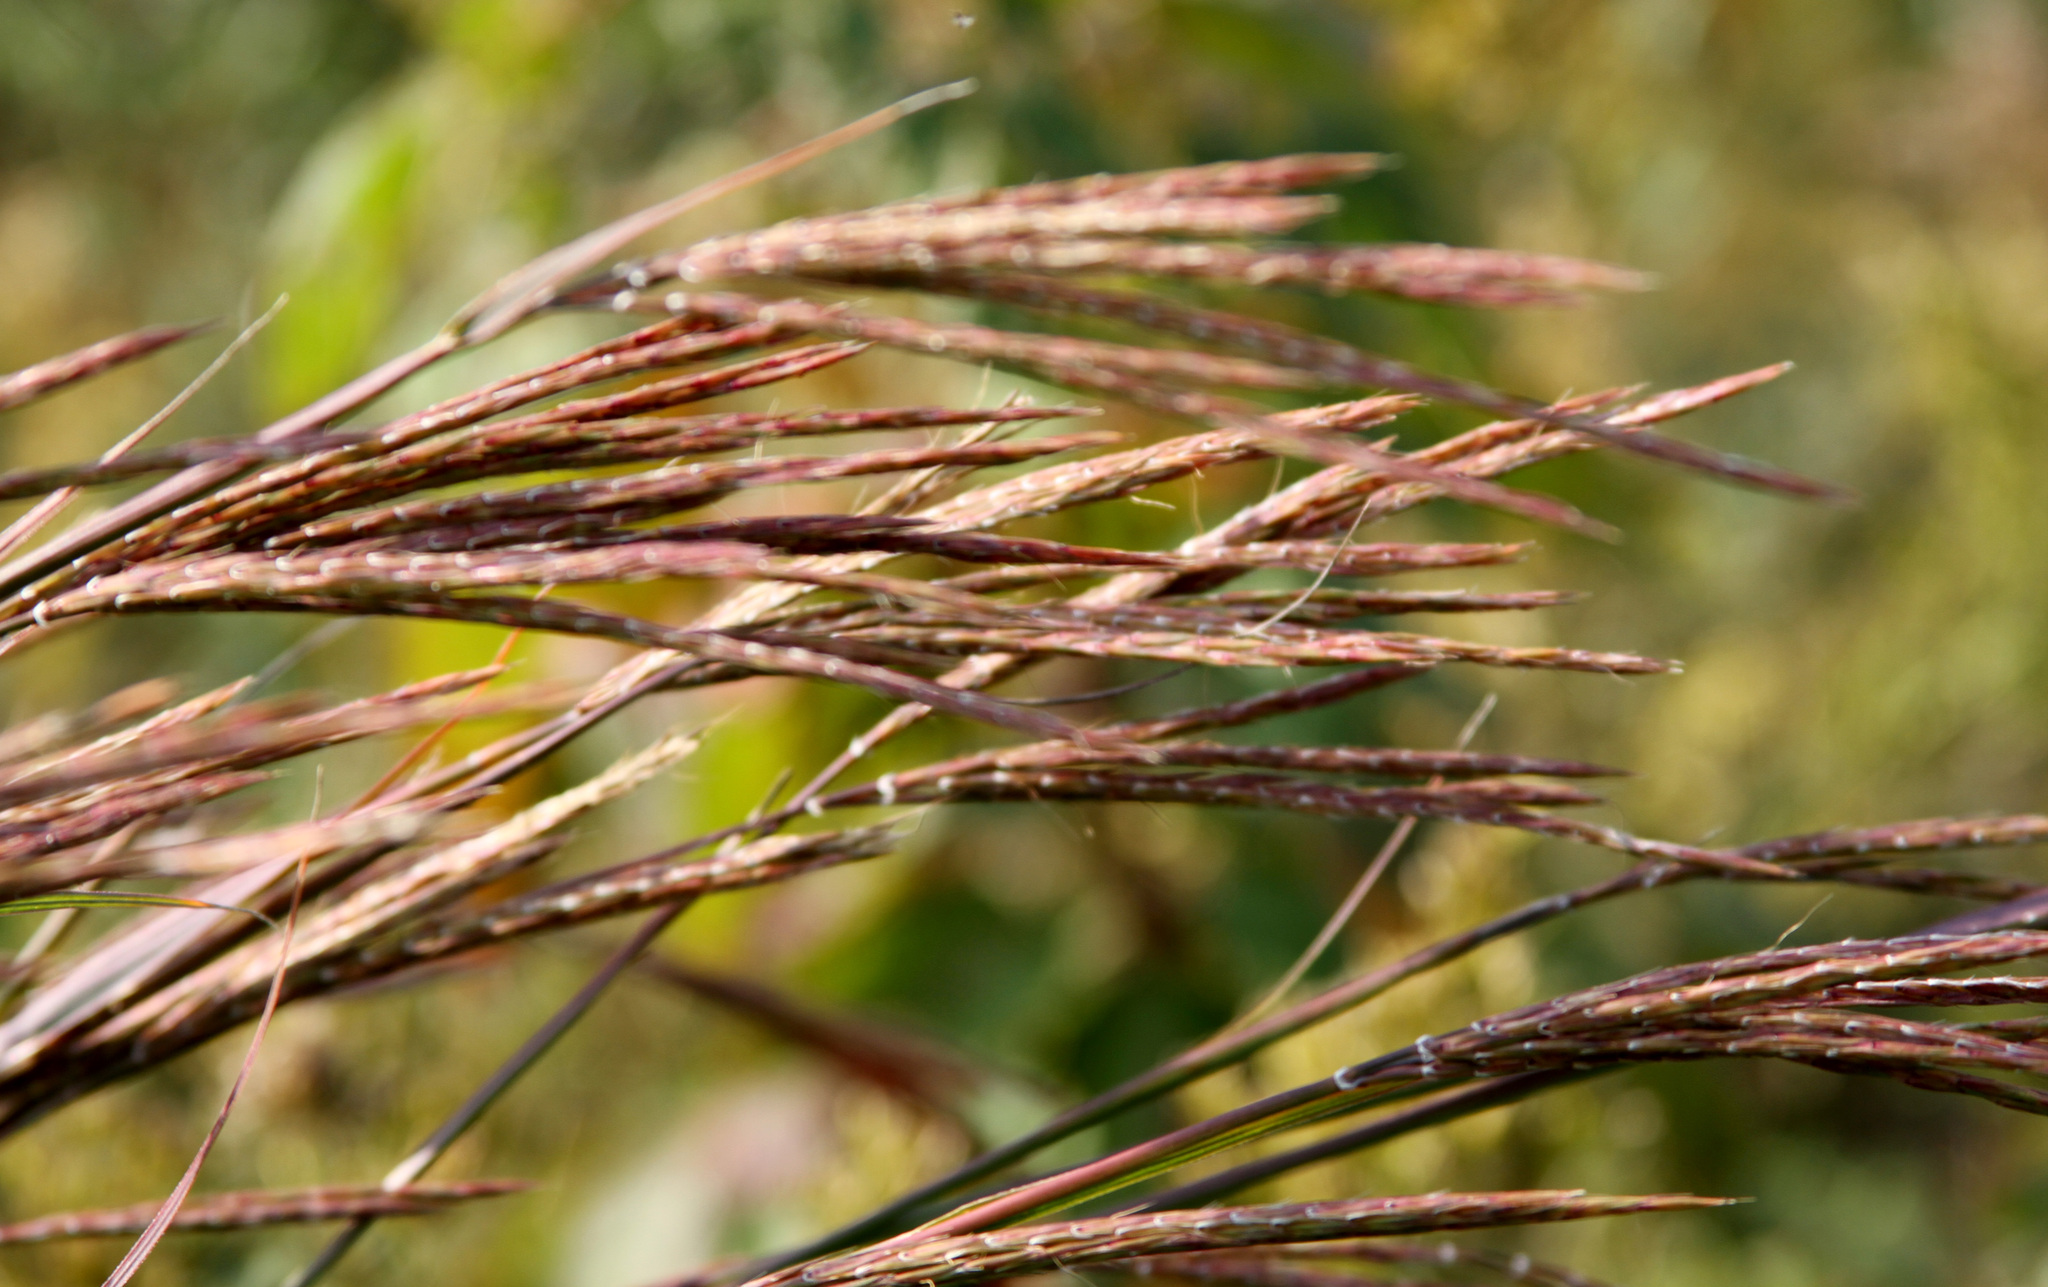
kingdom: Plantae
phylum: Tracheophyta
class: Liliopsida
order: Poales
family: Poaceae
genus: Andropogon
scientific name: Andropogon gerardi
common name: Big bluestem
